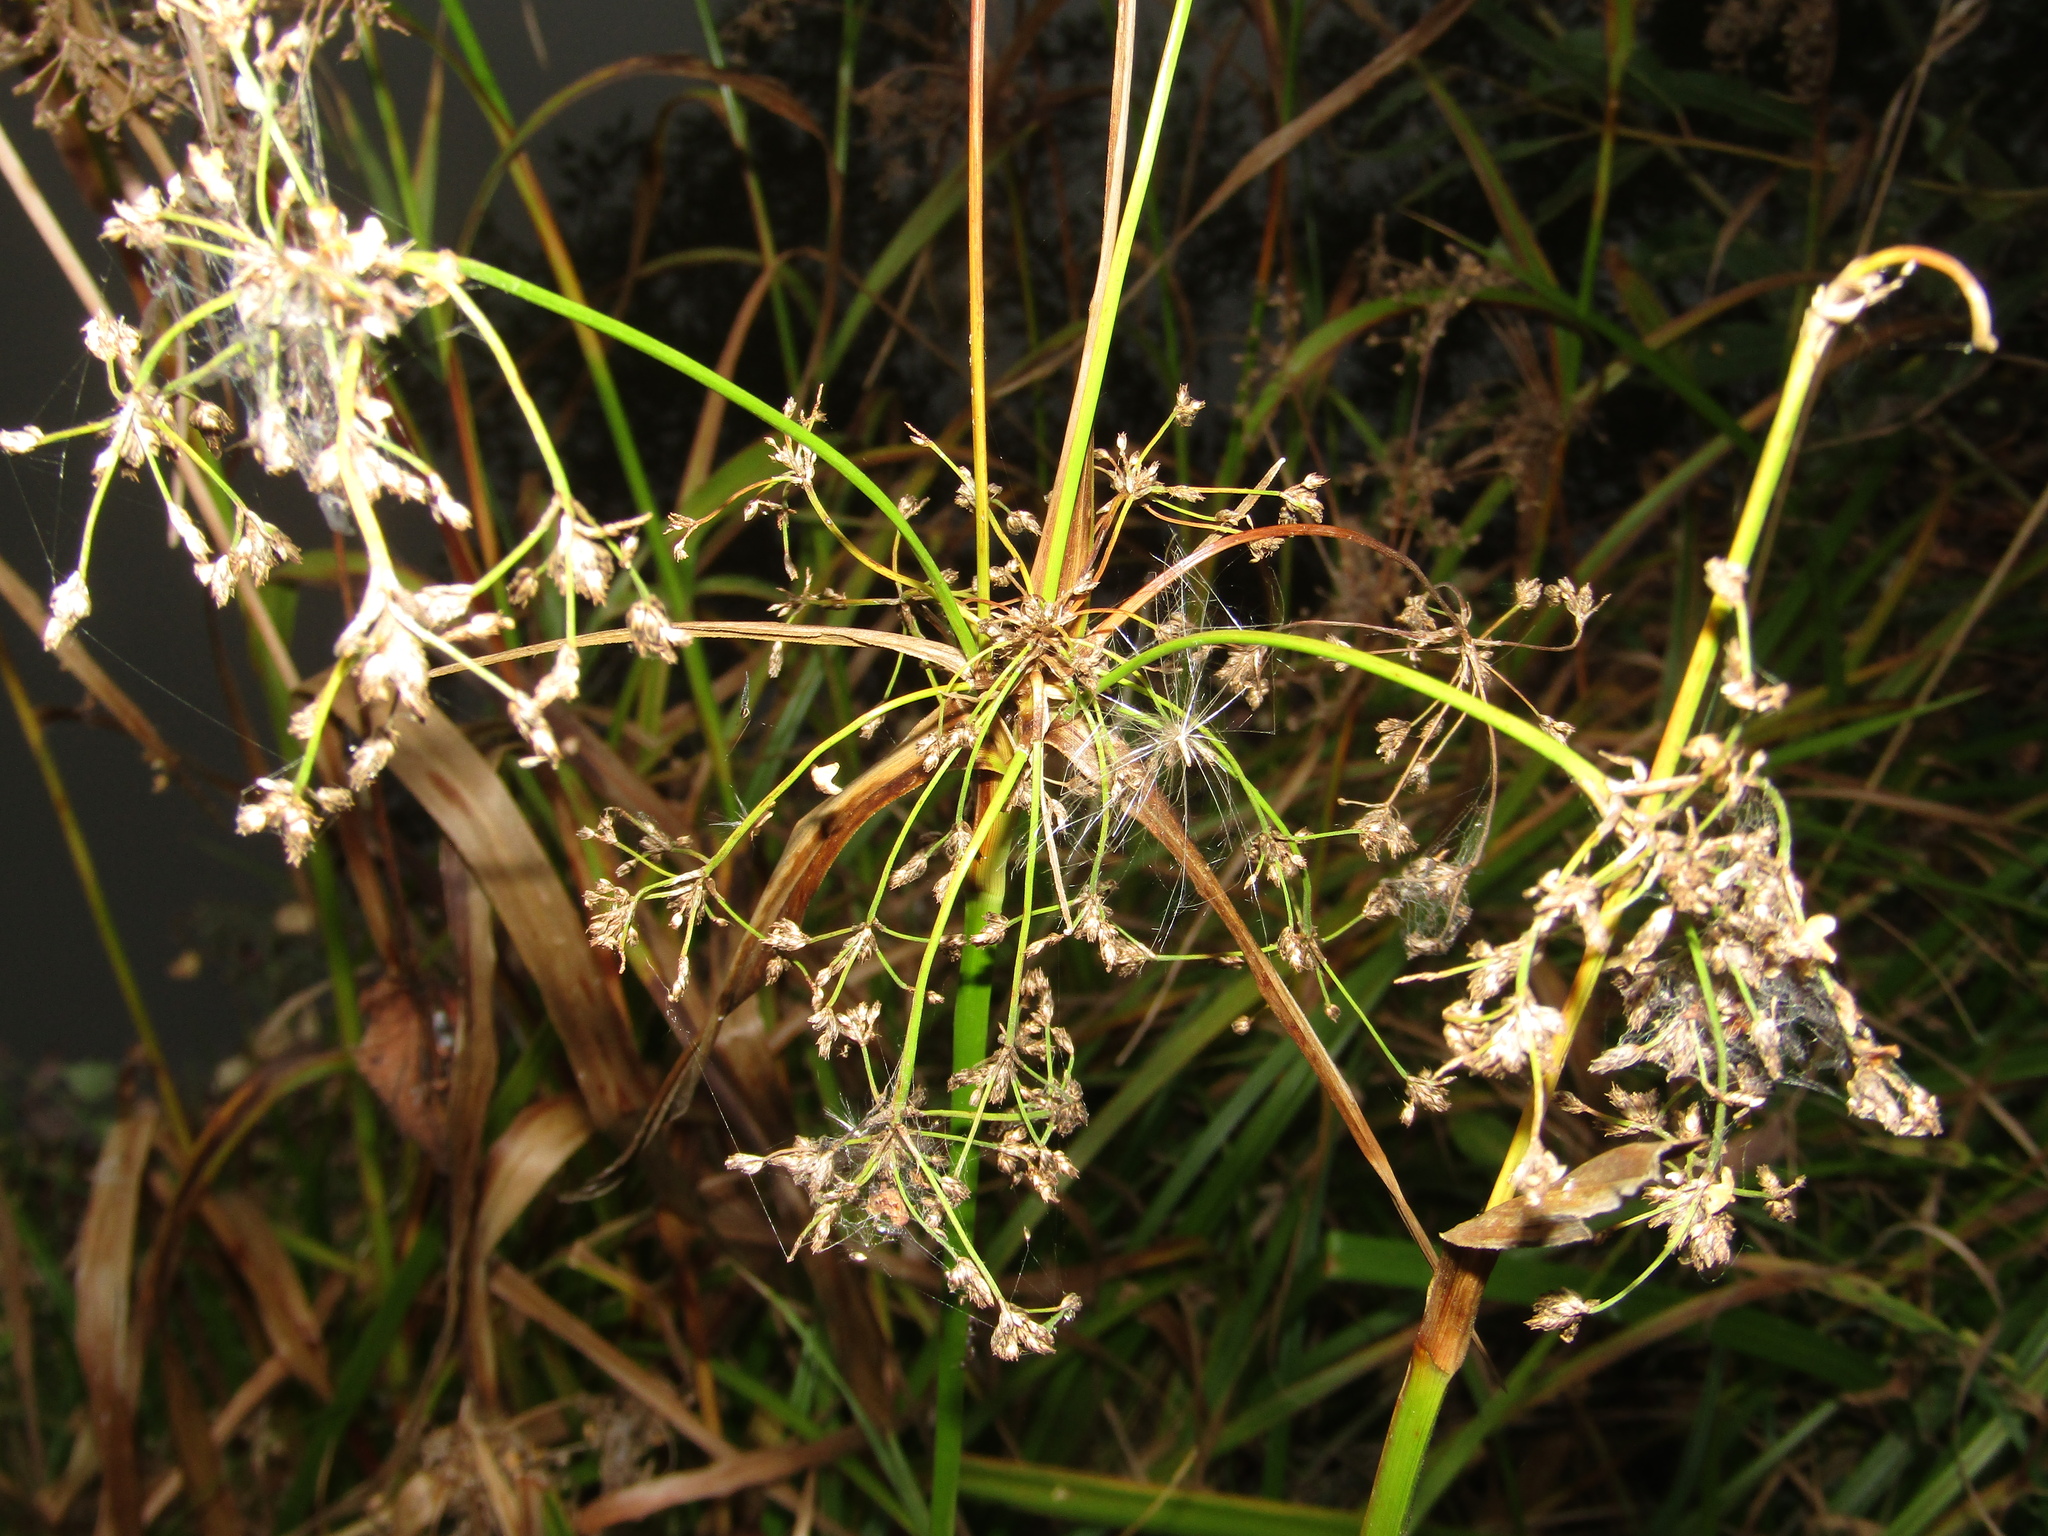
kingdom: Plantae
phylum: Tracheophyta
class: Liliopsida
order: Poales
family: Cyperaceae
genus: Scirpus
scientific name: Scirpus sylvaticus
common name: Wood club-rush
